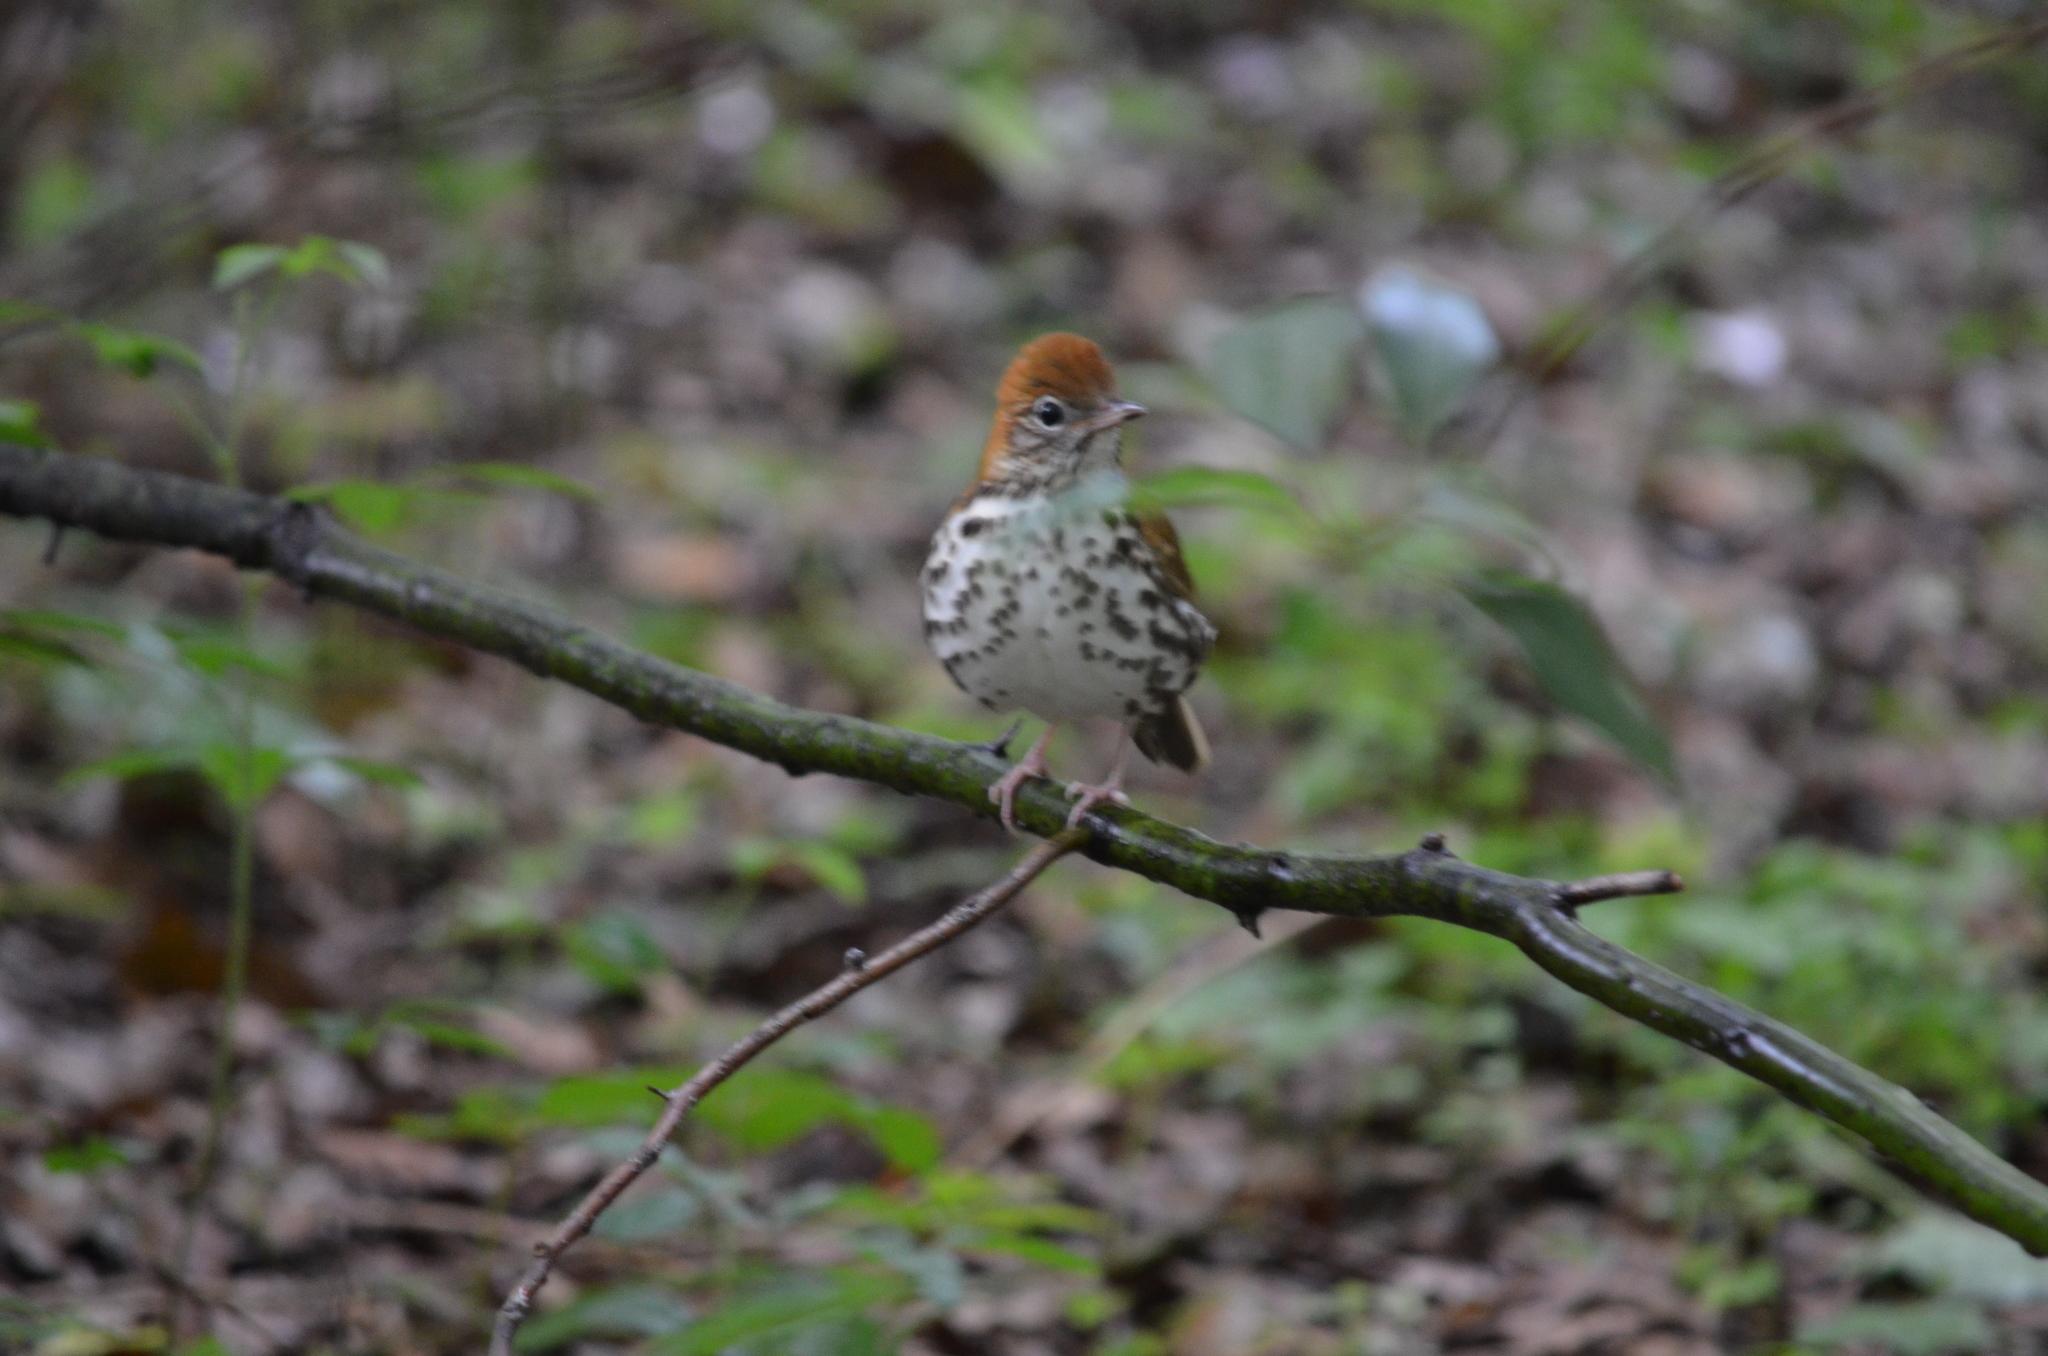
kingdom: Animalia
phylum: Chordata
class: Aves
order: Passeriformes
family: Turdidae
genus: Hylocichla
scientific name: Hylocichla mustelina
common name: Wood thrush
